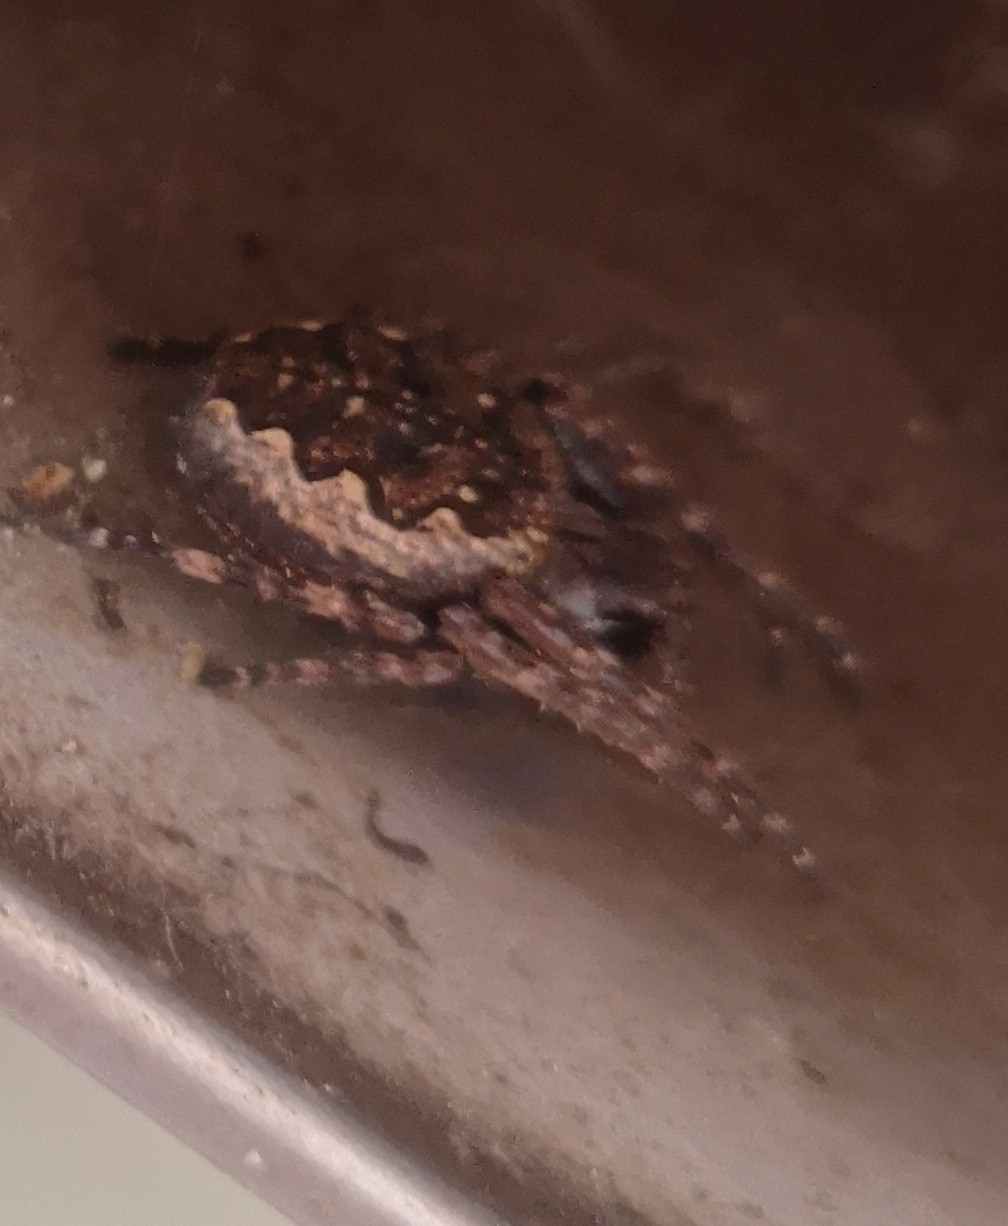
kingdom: Animalia
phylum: Arthropoda
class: Arachnida
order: Araneae
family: Araneidae
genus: Nuctenea
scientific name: Nuctenea umbratica
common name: Toad spider
